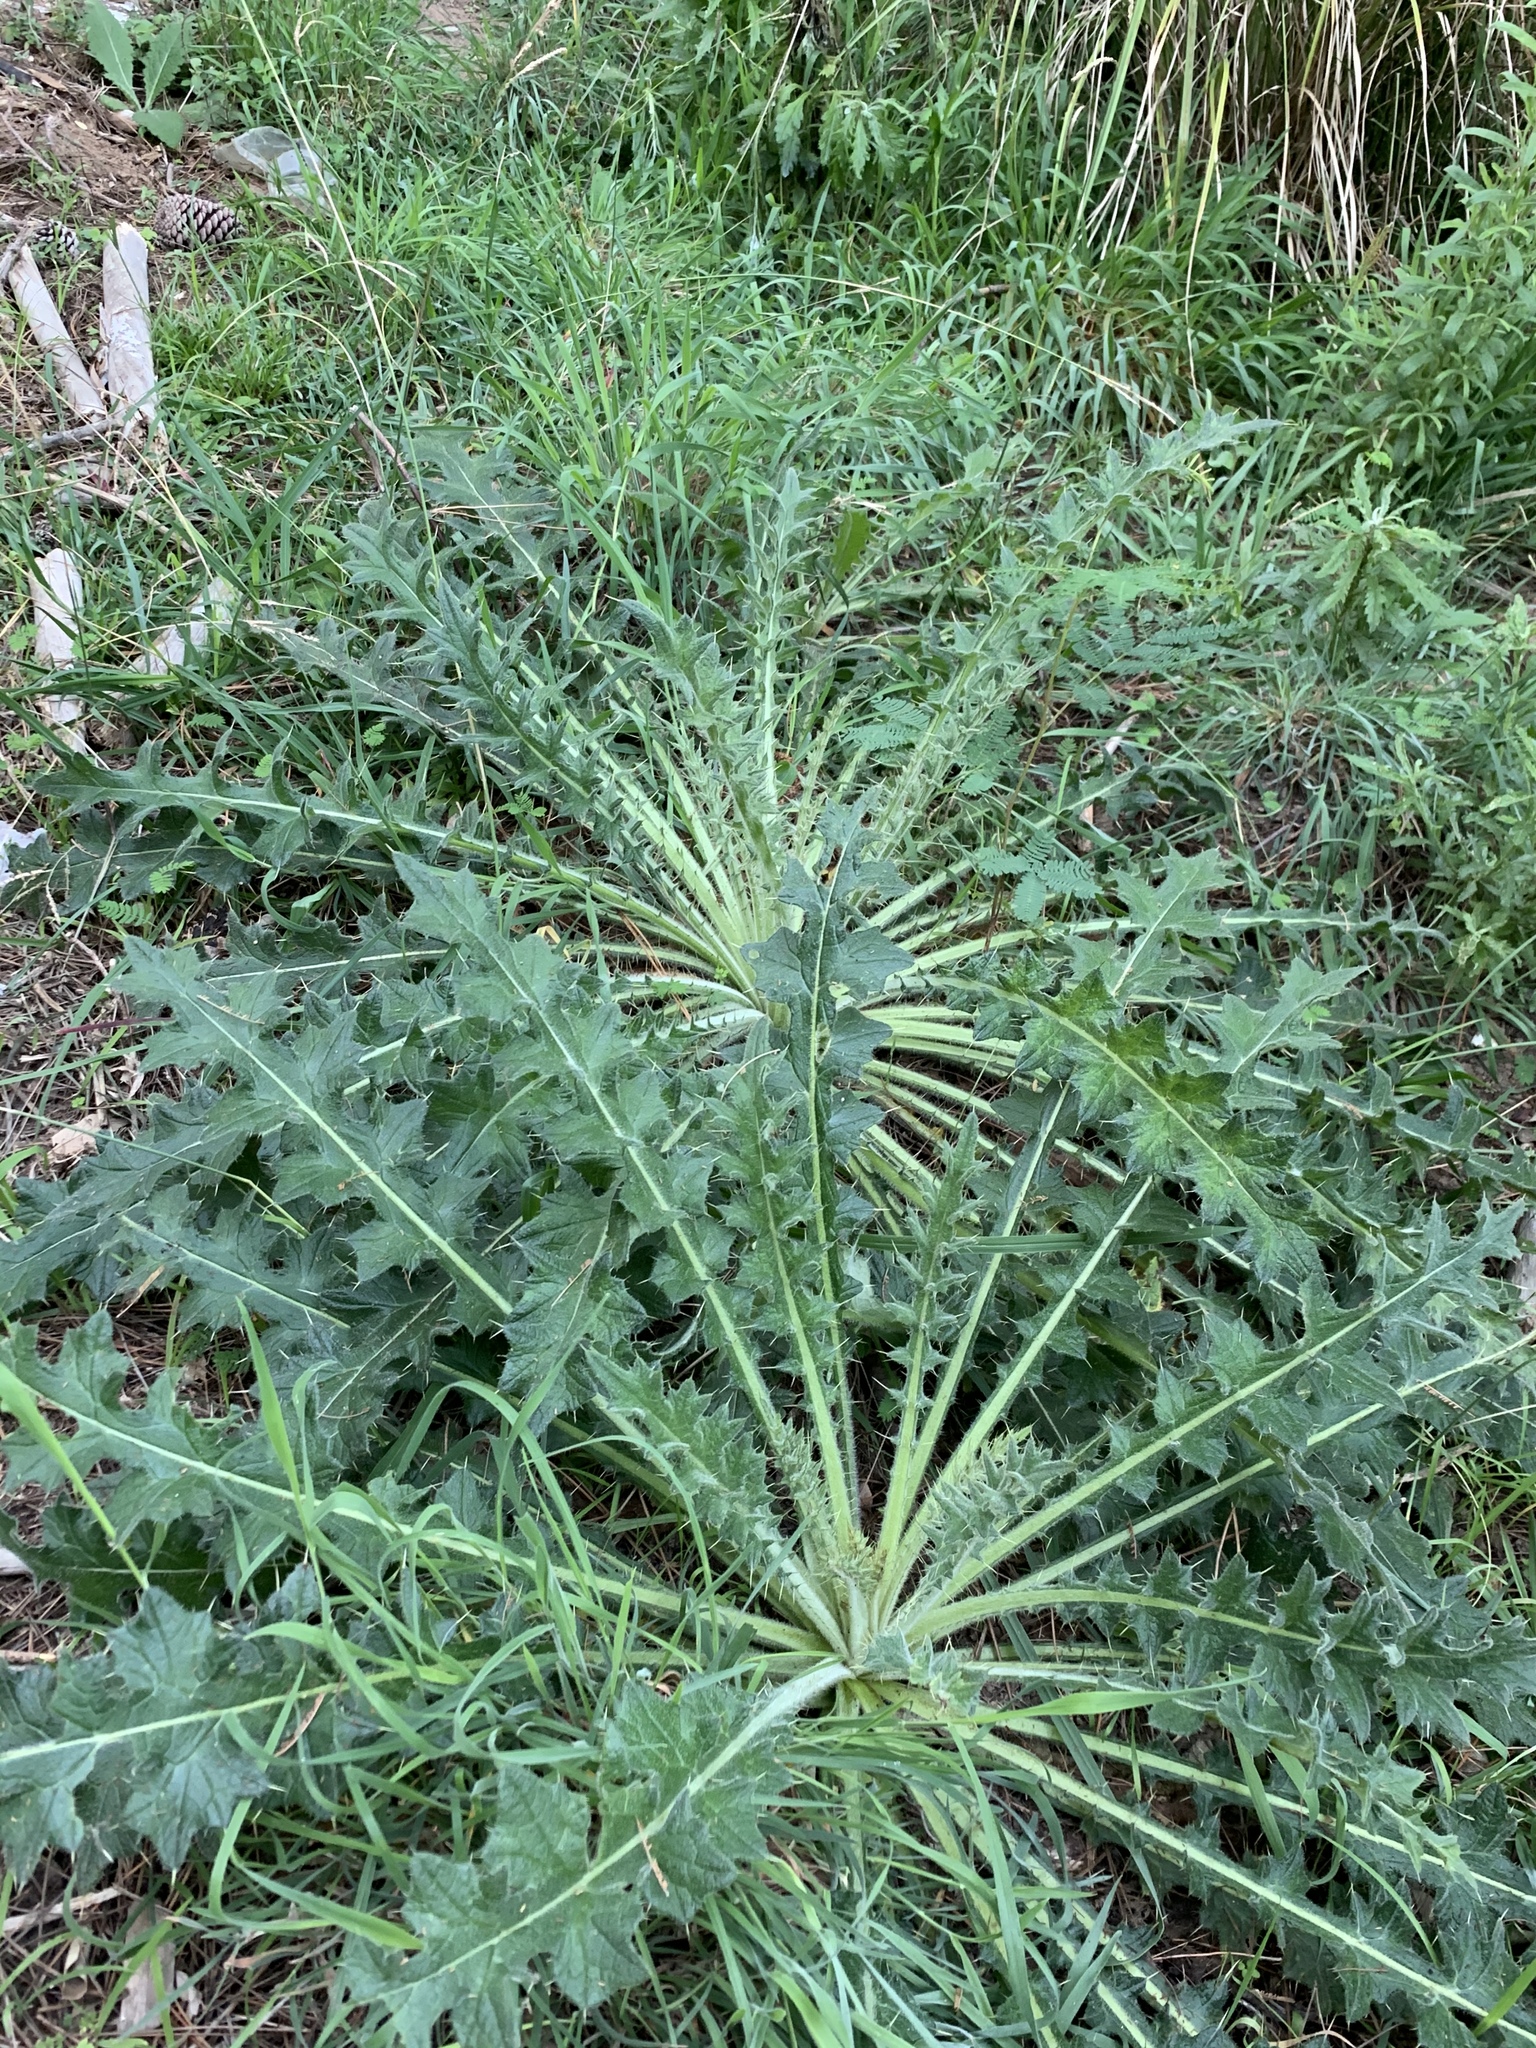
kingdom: Plantae
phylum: Tracheophyta
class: Magnoliopsida
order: Asterales
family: Asteraceae
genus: Cirsium
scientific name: Cirsium vulgare
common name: Bull thistle
